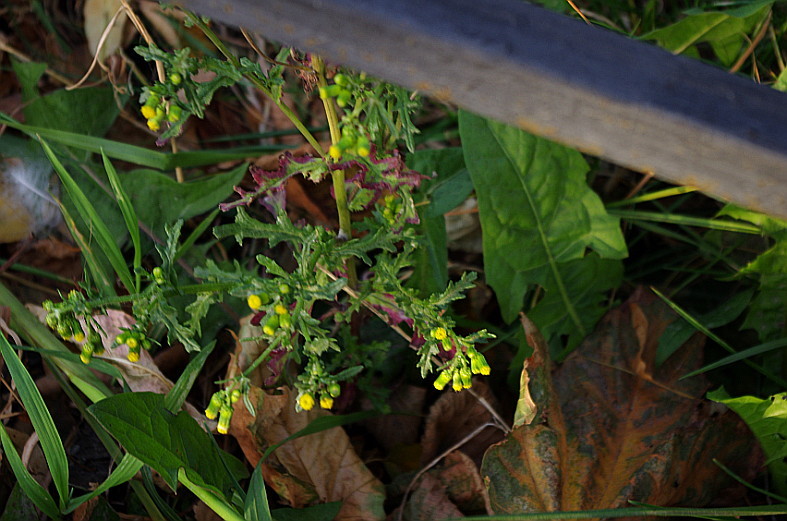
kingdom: Plantae
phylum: Tracheophyta
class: Magnoliopsida
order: Asterales
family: Asteraceae
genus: Senecio
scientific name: Senecio vulgaris
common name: Old-man-in-the-spring
